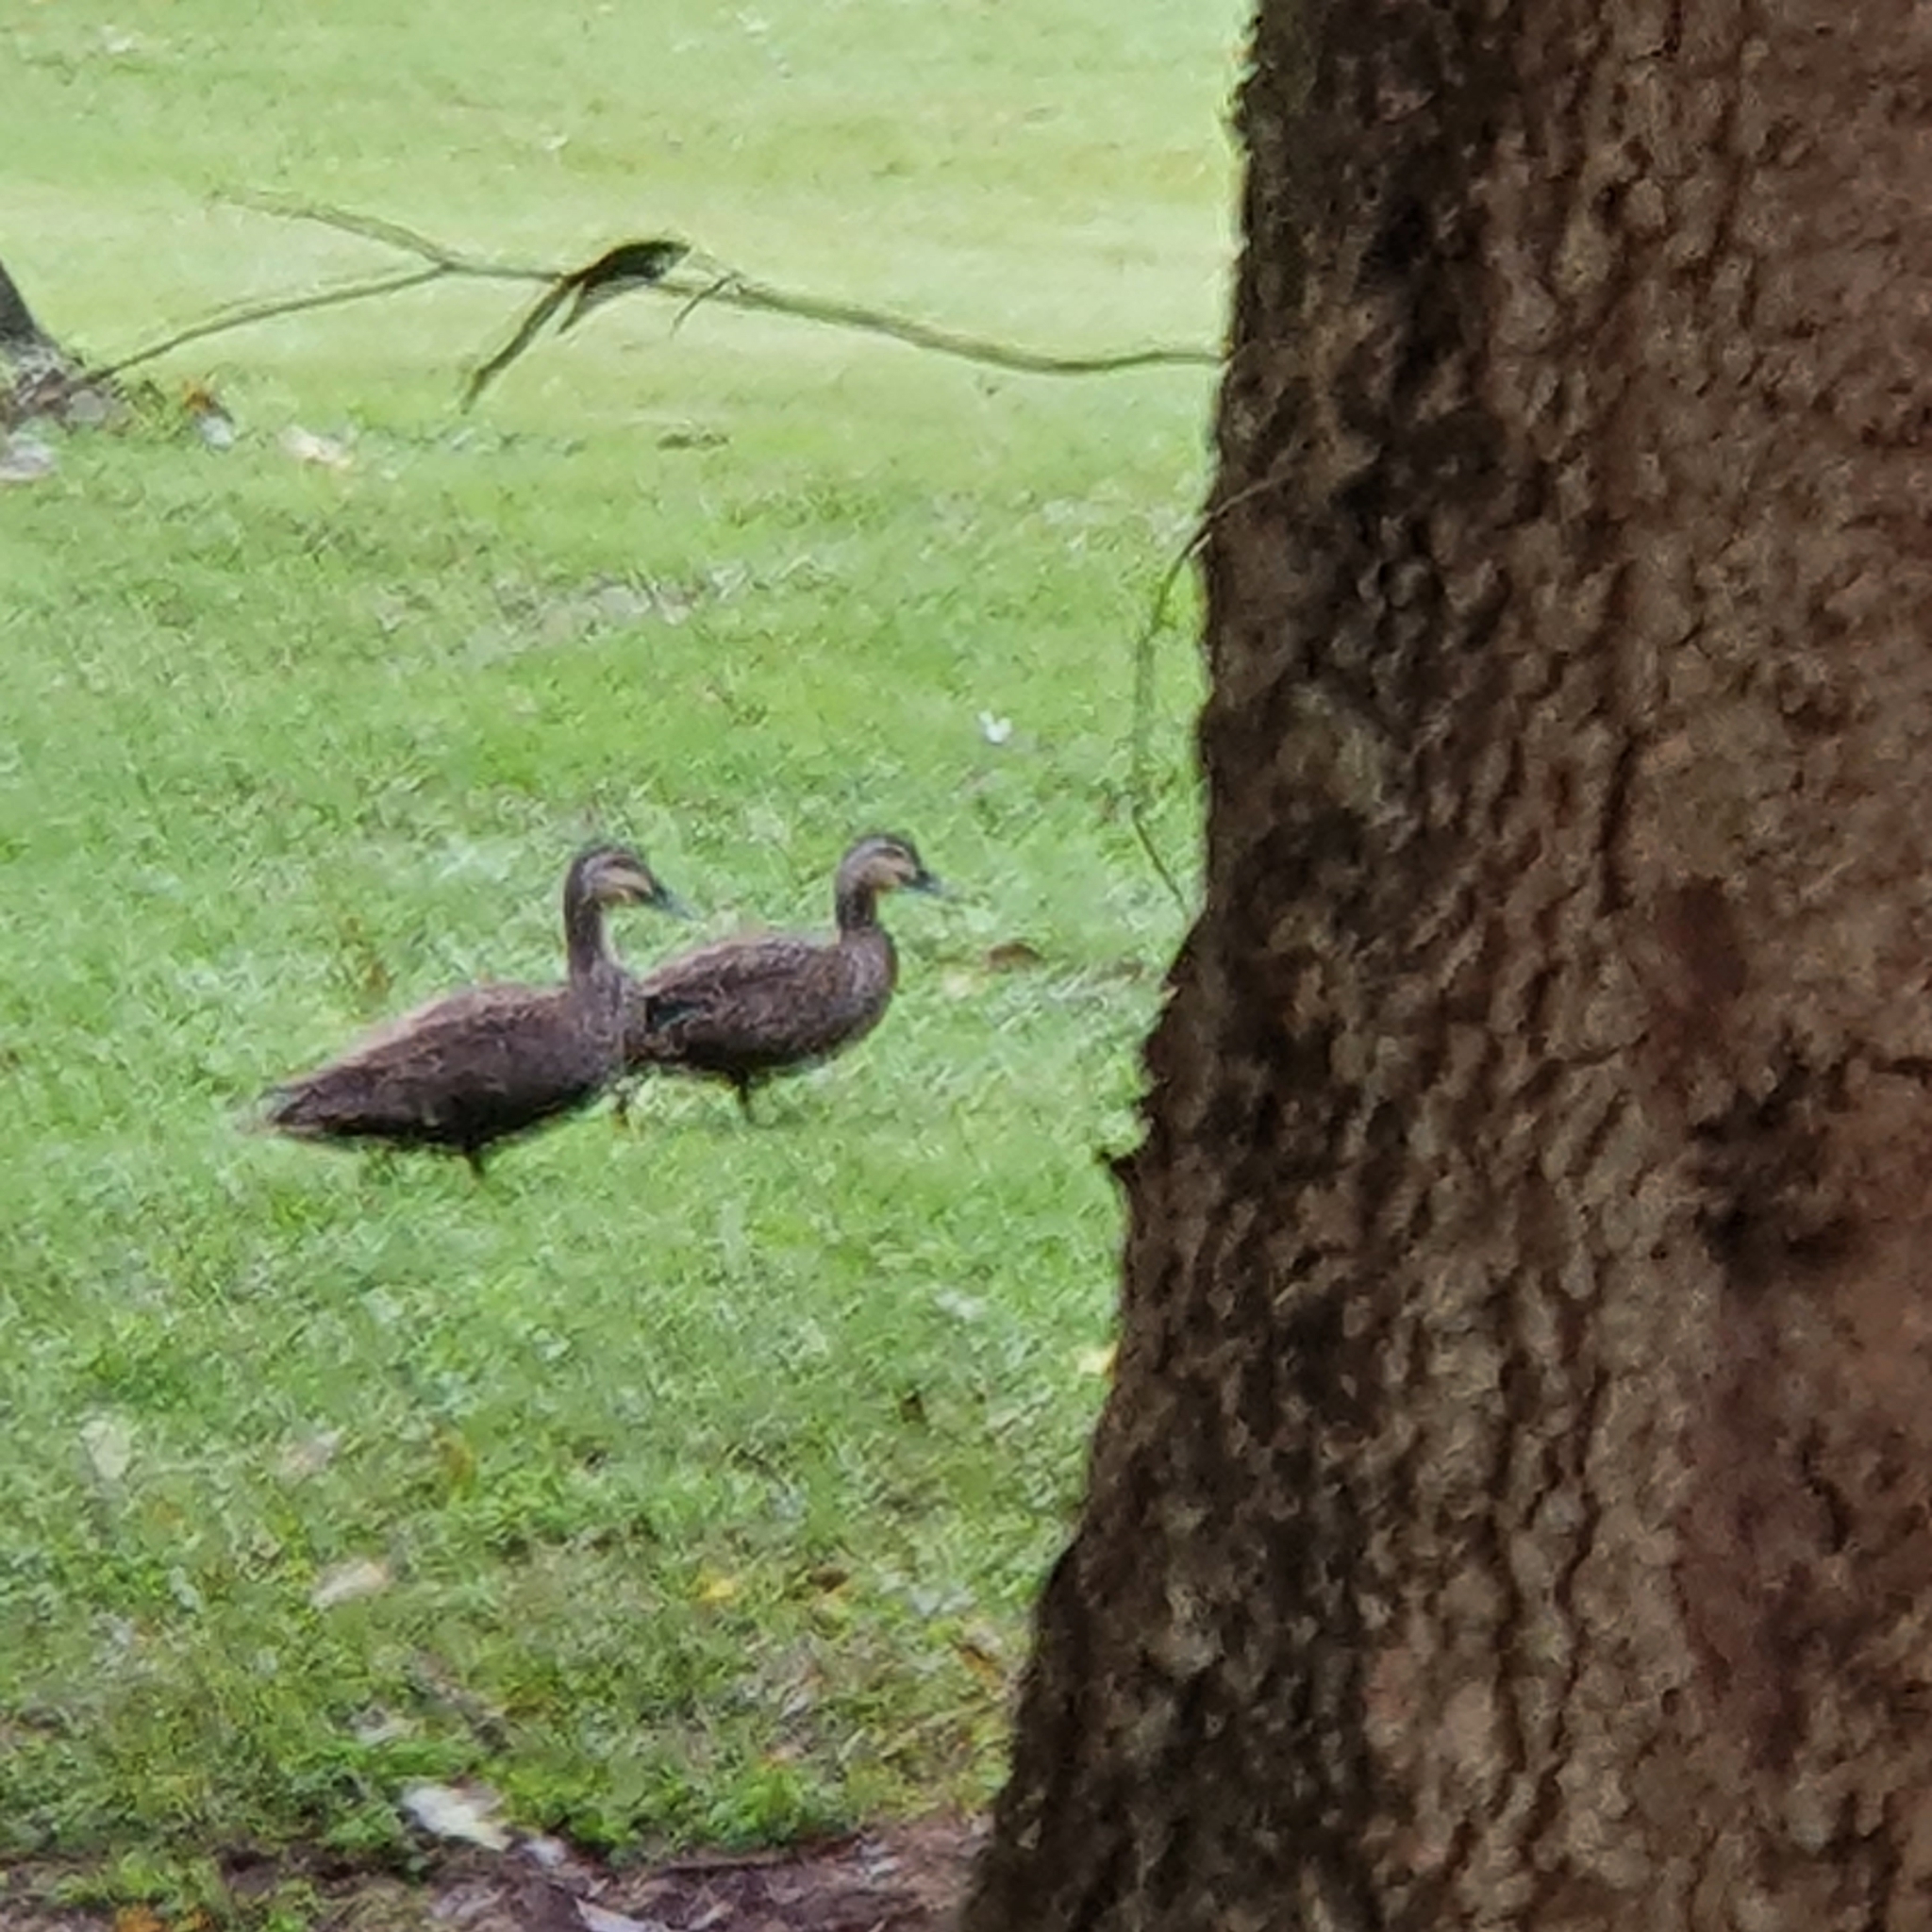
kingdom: Animalia
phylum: Chordata
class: Aves
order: Anseriformes
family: Anatidae
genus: Anas
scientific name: Anas superciliosa
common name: Pacific black duck
